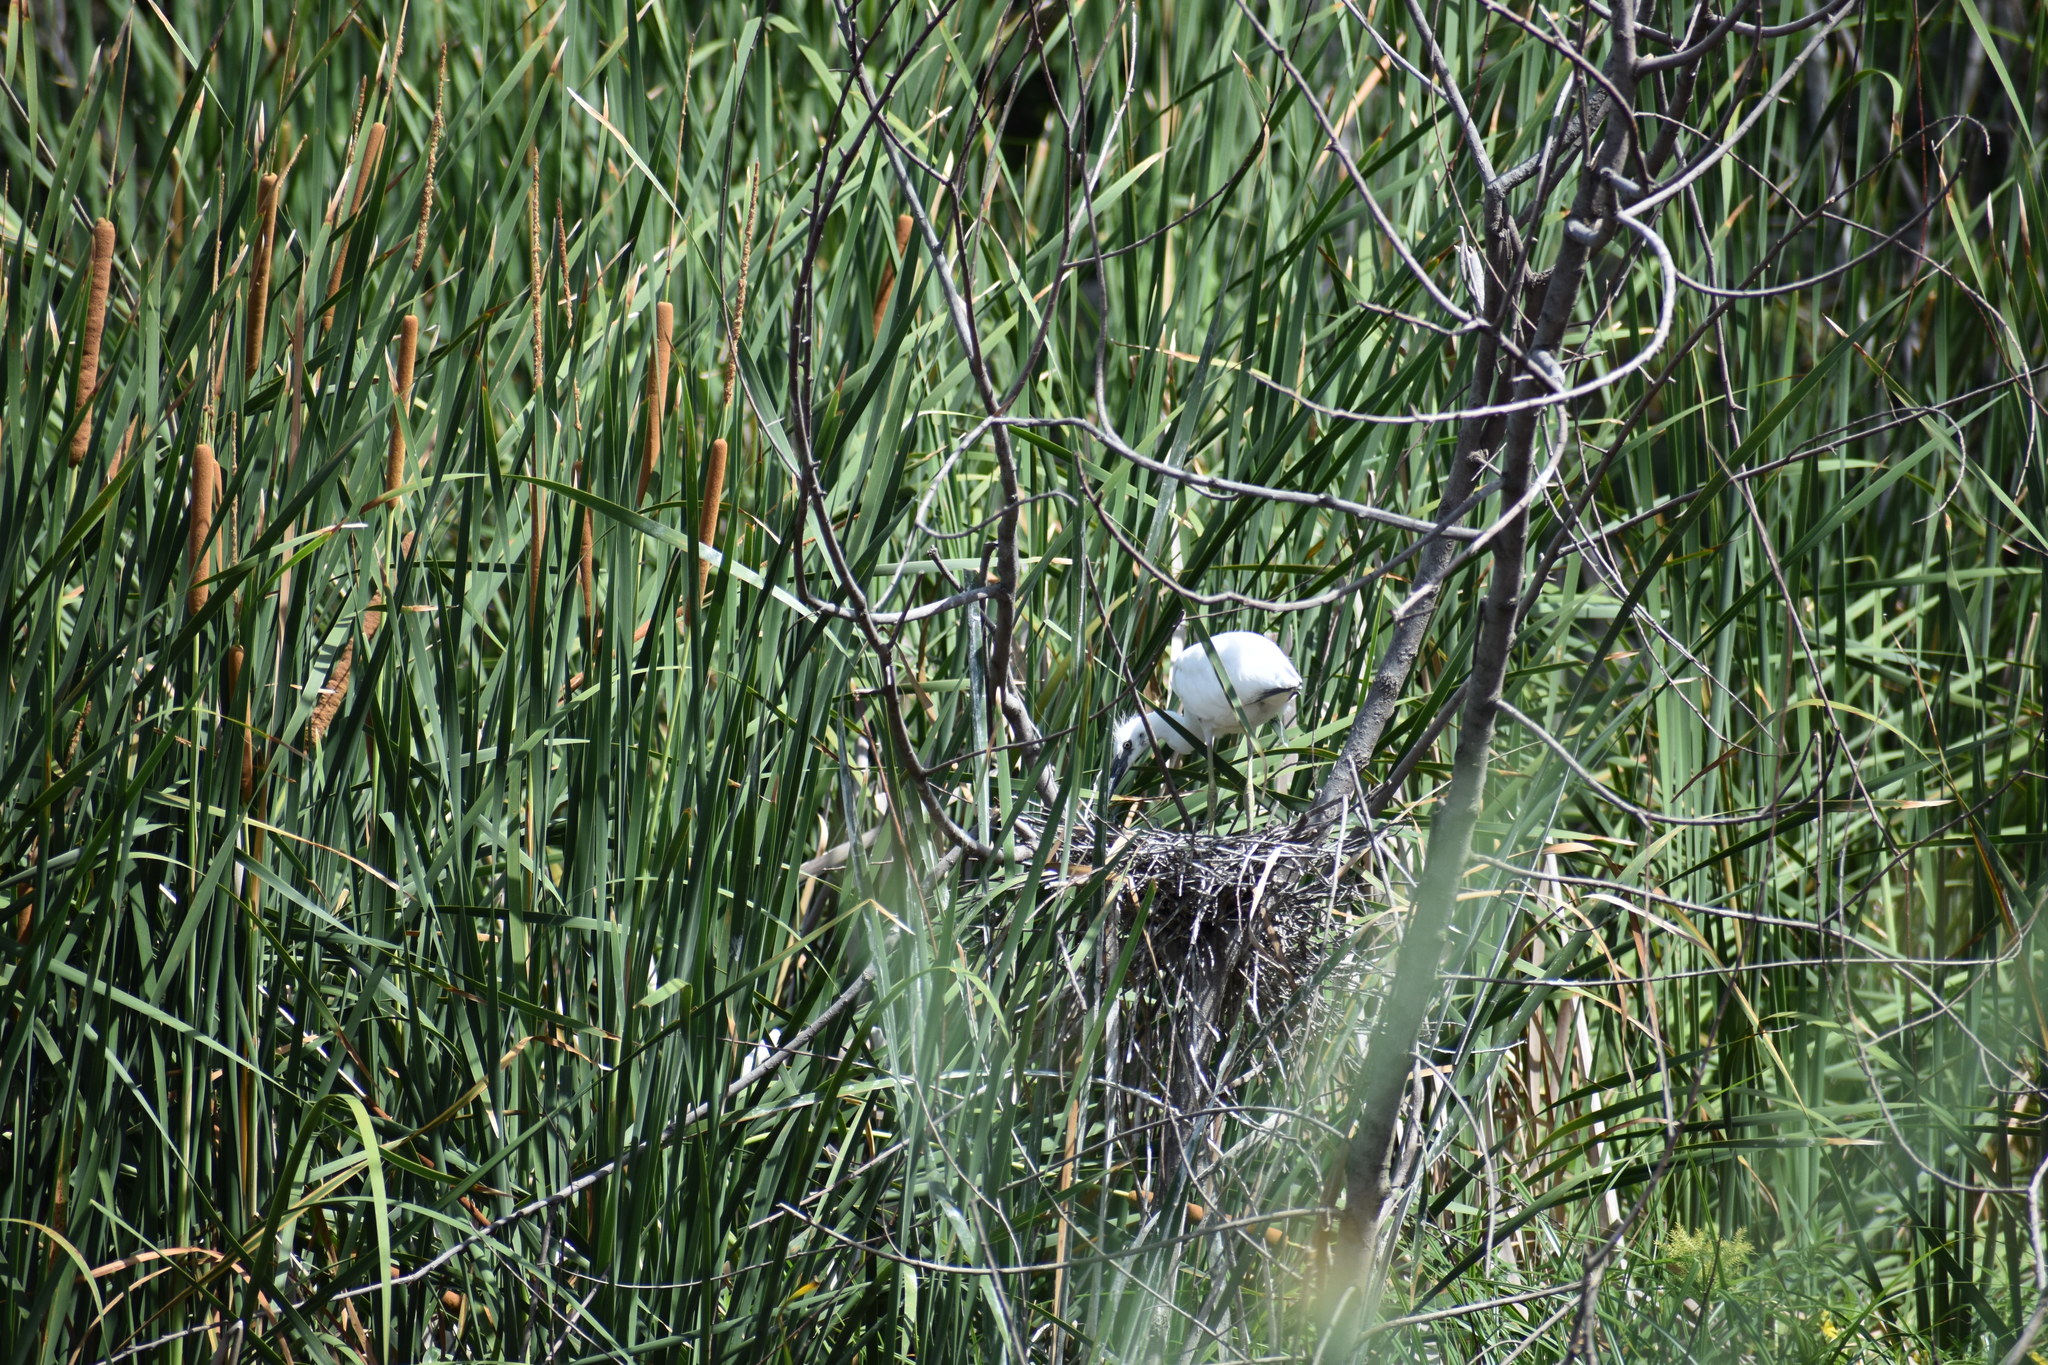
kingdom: Animalia
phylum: Chordata
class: Aves
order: Pelecaniformes
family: Ardeidae
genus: Egretta
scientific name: Egretta caerulea
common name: Little blue heron
